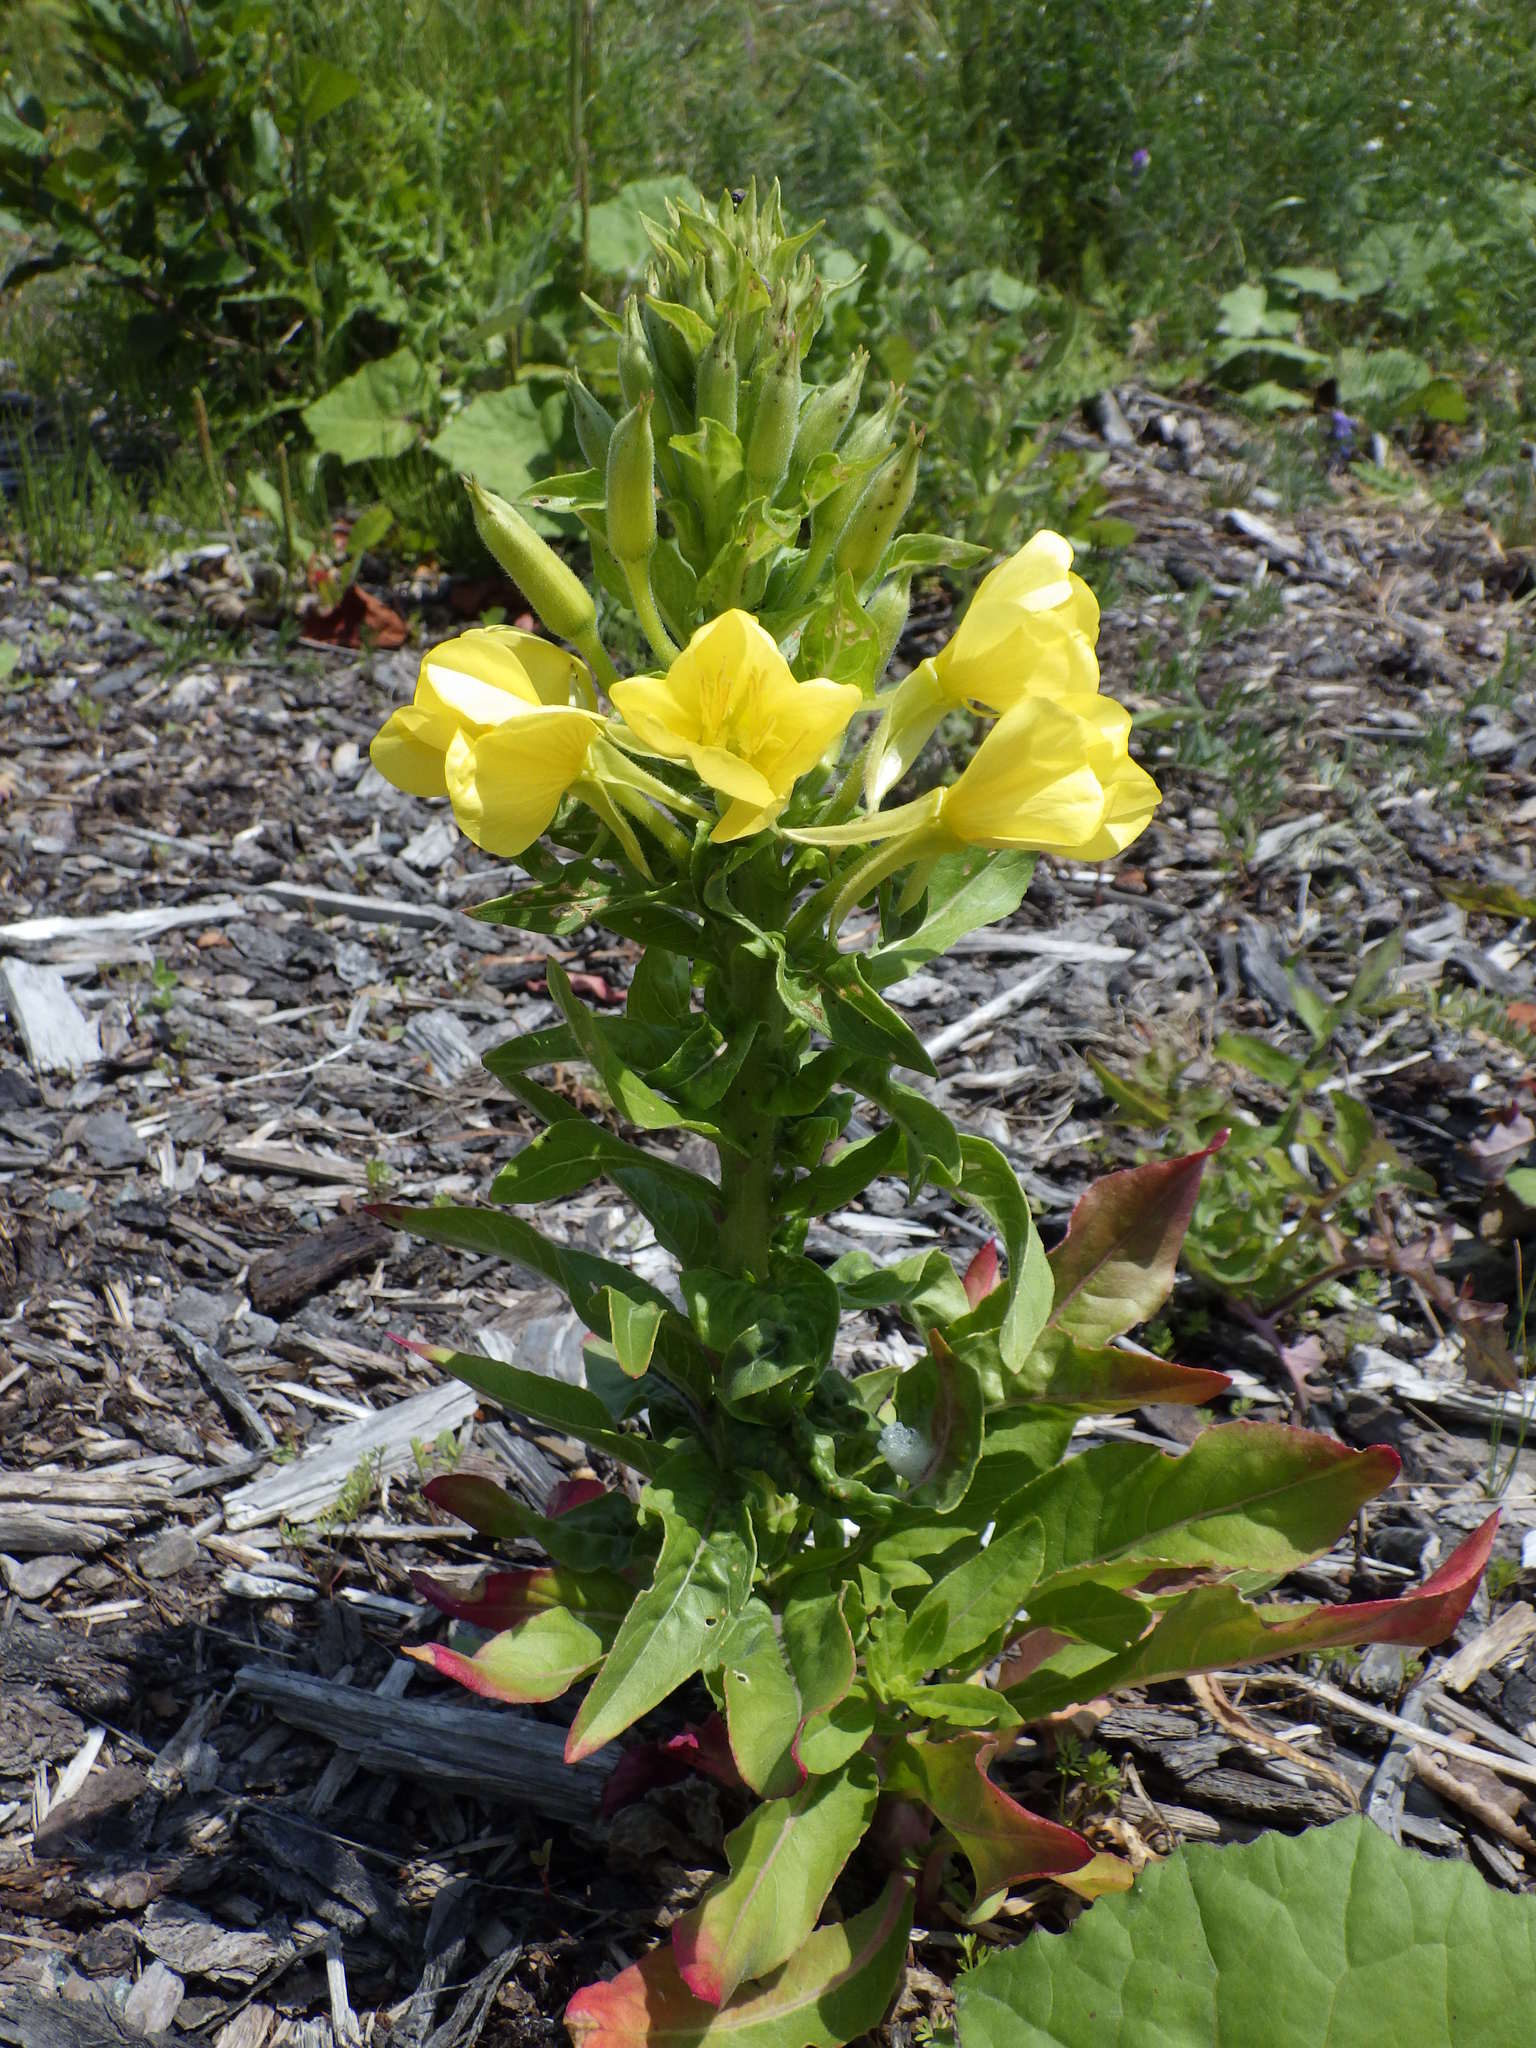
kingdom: Plantae
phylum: Tracheophyta
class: Magnoliopsida
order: Myrtales
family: Onagraceae
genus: Oenothera
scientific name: Oenothera biennis
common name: Common evening-primrose
